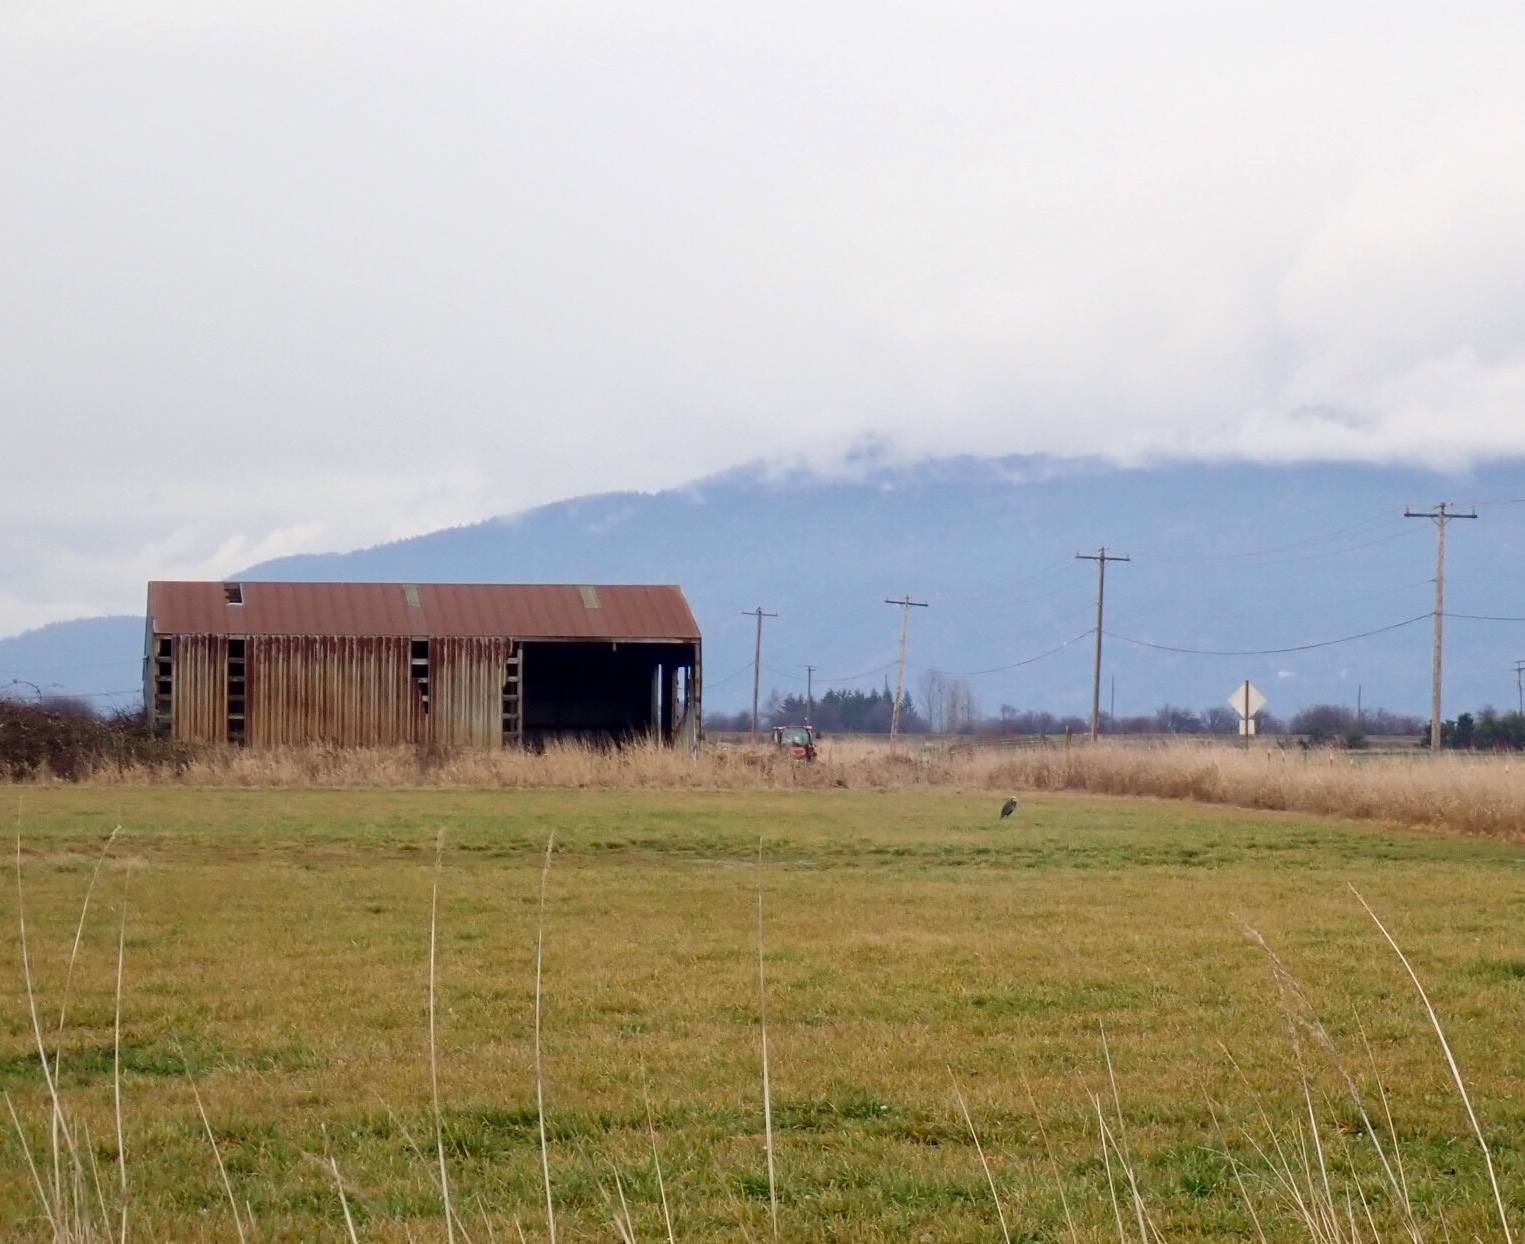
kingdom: Animalia
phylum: Chordata
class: Aves
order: Pelecaniformes
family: Ardeidae
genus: Ardea
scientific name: Ardea herodias
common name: Great blue heron
